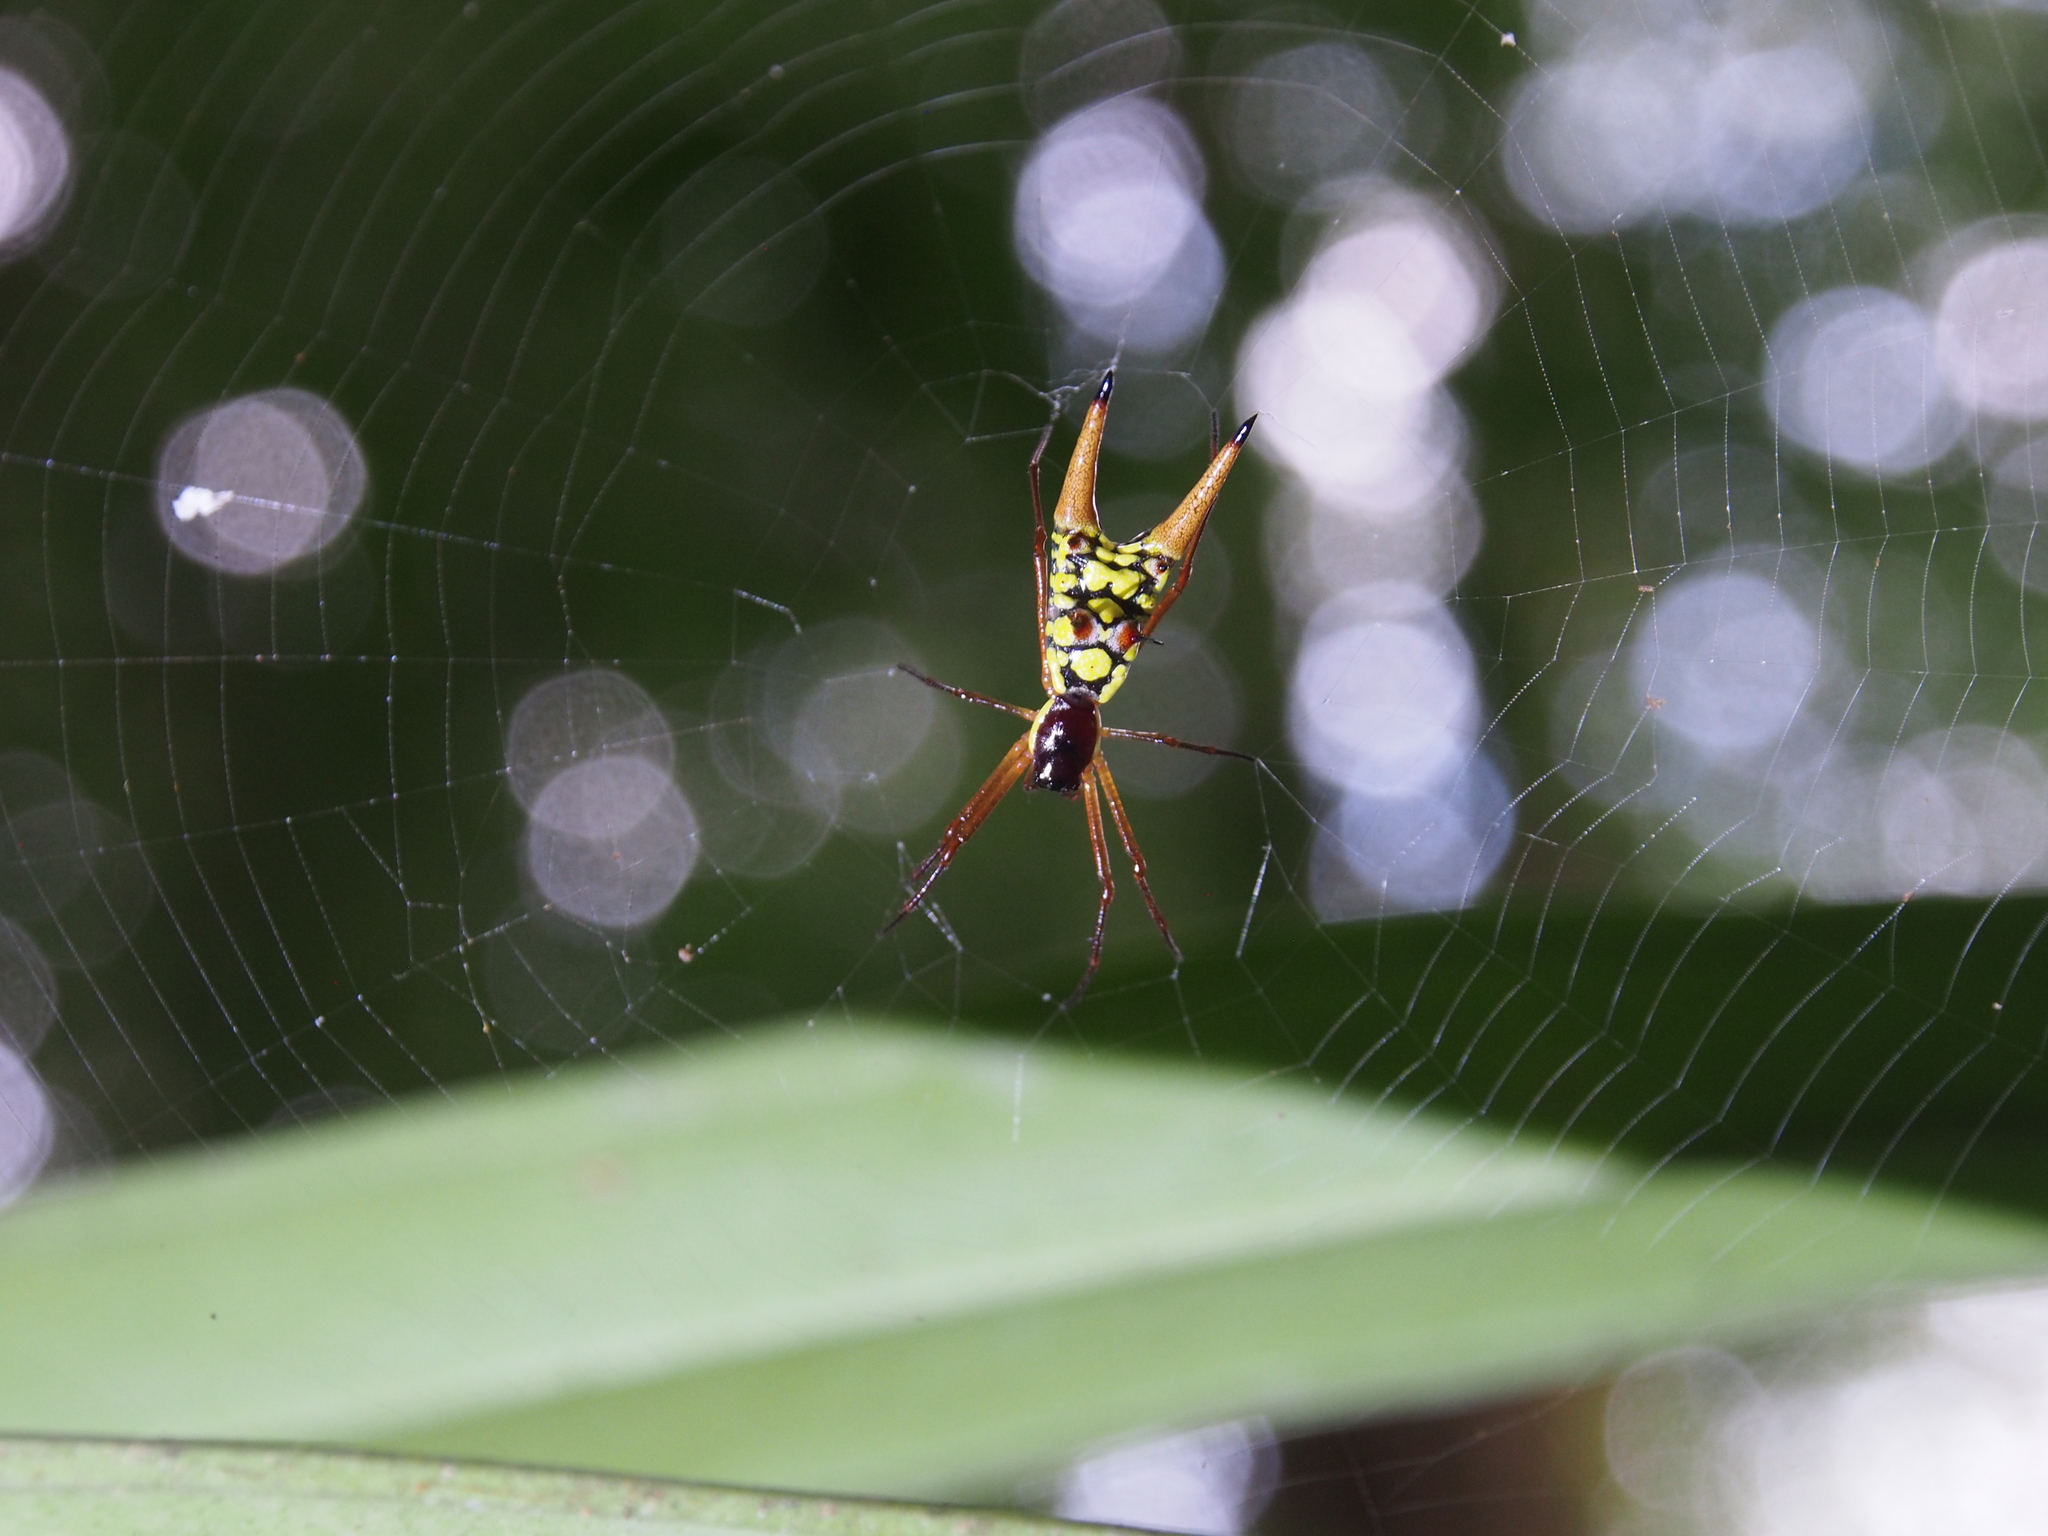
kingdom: Animalia
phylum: Arthropoda
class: Arachnida
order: Araneae
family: Araneidae
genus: Micrathena
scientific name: Micrathena brevipes
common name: Orb weavers
